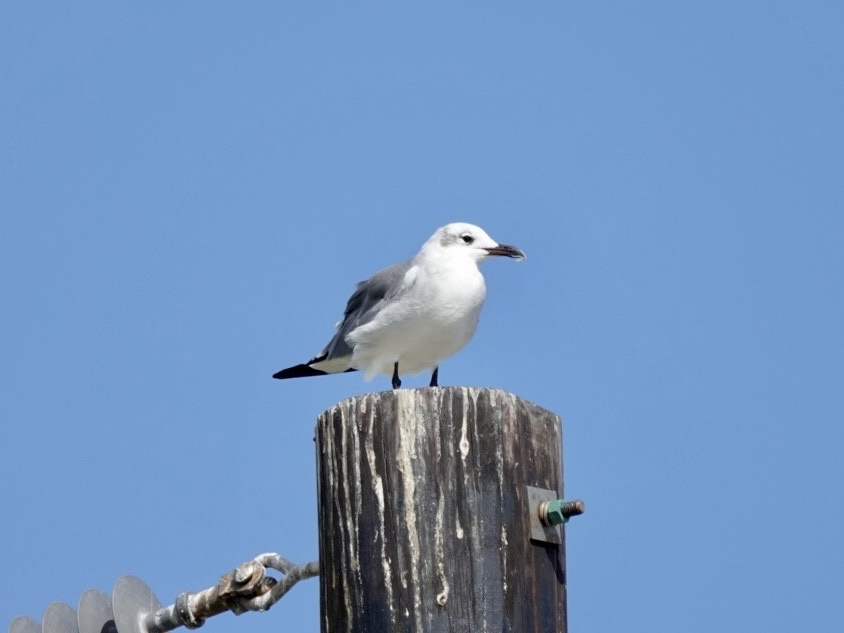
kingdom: Animalia
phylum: Chordata
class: Aves
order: Charadriiformes
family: Laridae
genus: Leucophaeus
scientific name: Leucophaeus atricilla
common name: Laughing gull
